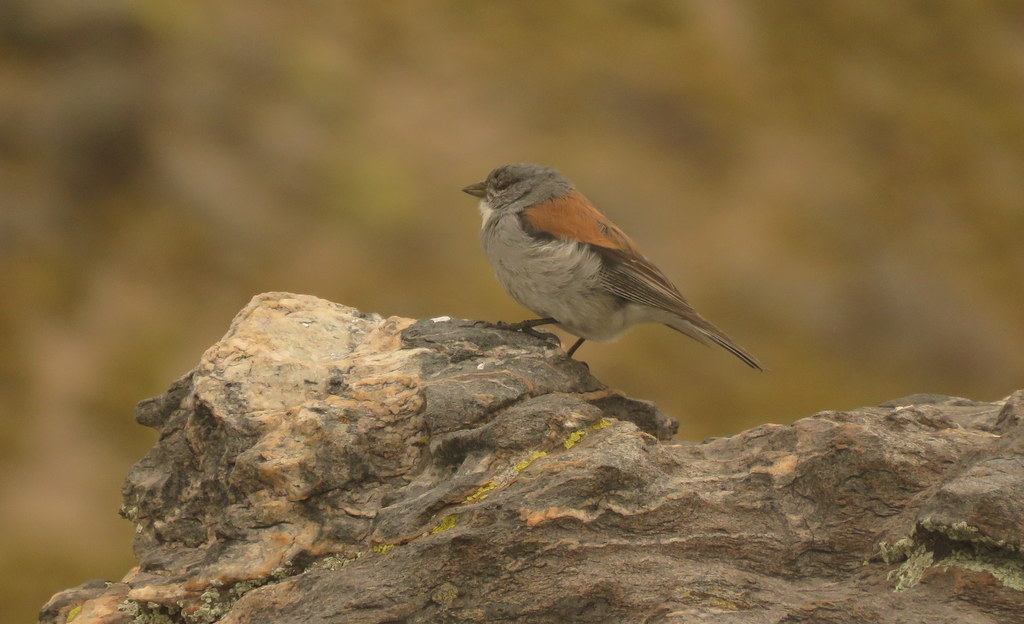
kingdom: Animalia
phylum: Chordata
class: Aves
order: Passeriformes
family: Thraupidae
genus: Idiopsar
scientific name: Idiopsar dorsalis
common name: Red-backed sierra finch
